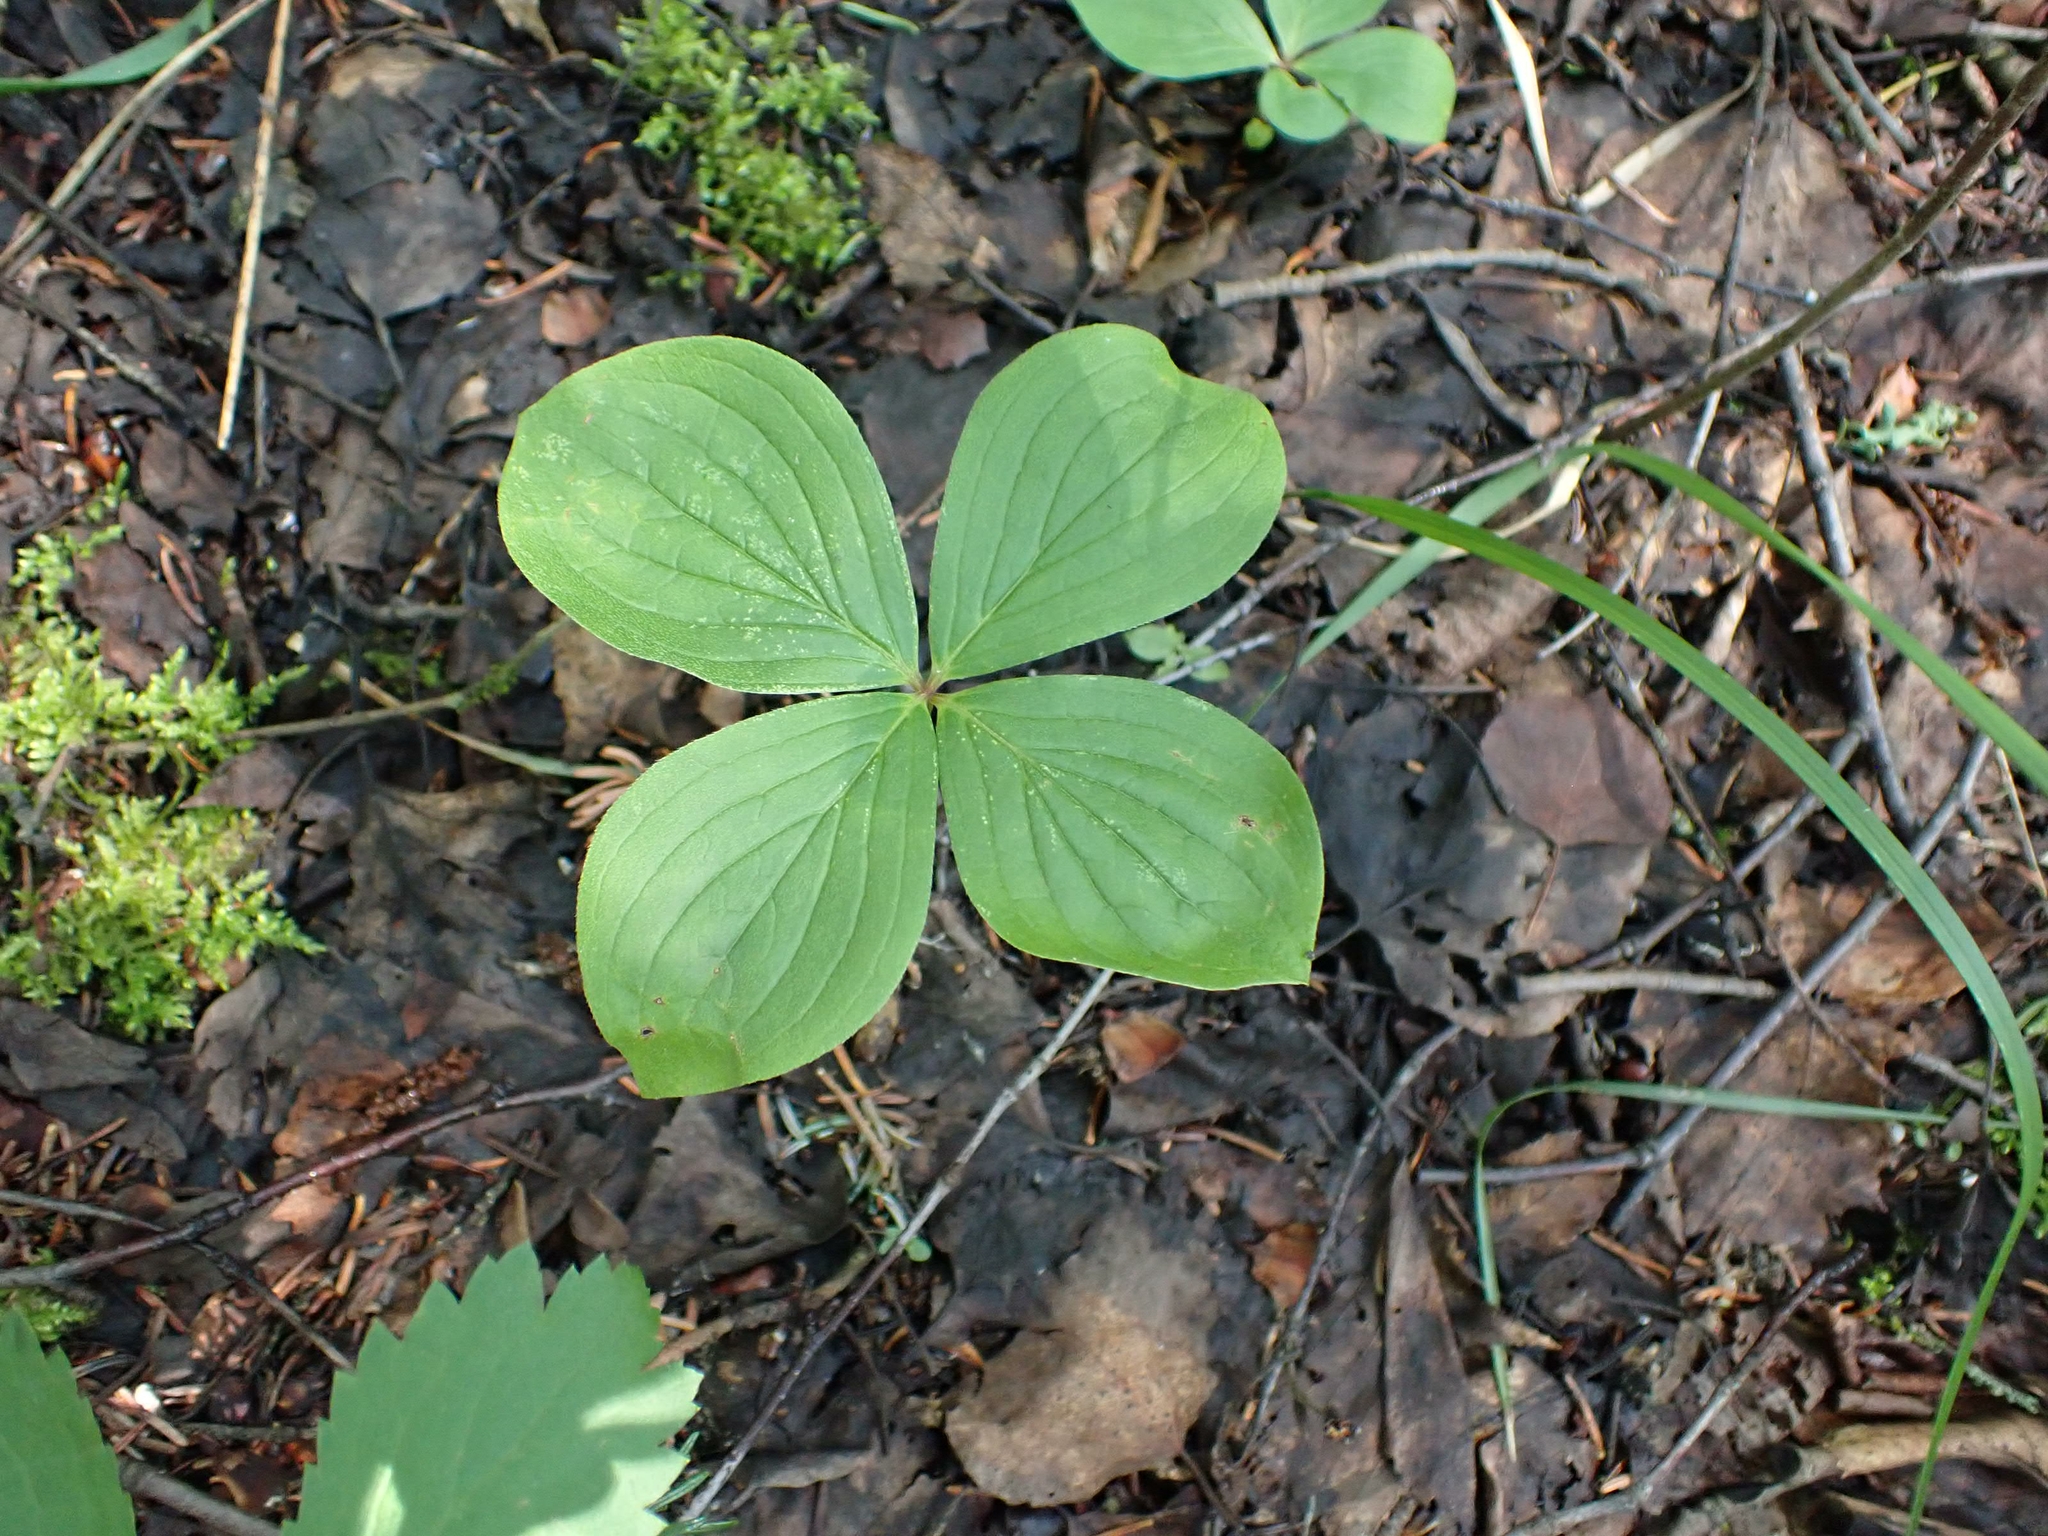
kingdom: Plantae
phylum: Tracheophyta
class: Magnoliopsida
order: Cornales
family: Cornaceae
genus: Cornus
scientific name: Cornus canadensis
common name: Creeping dogwood
